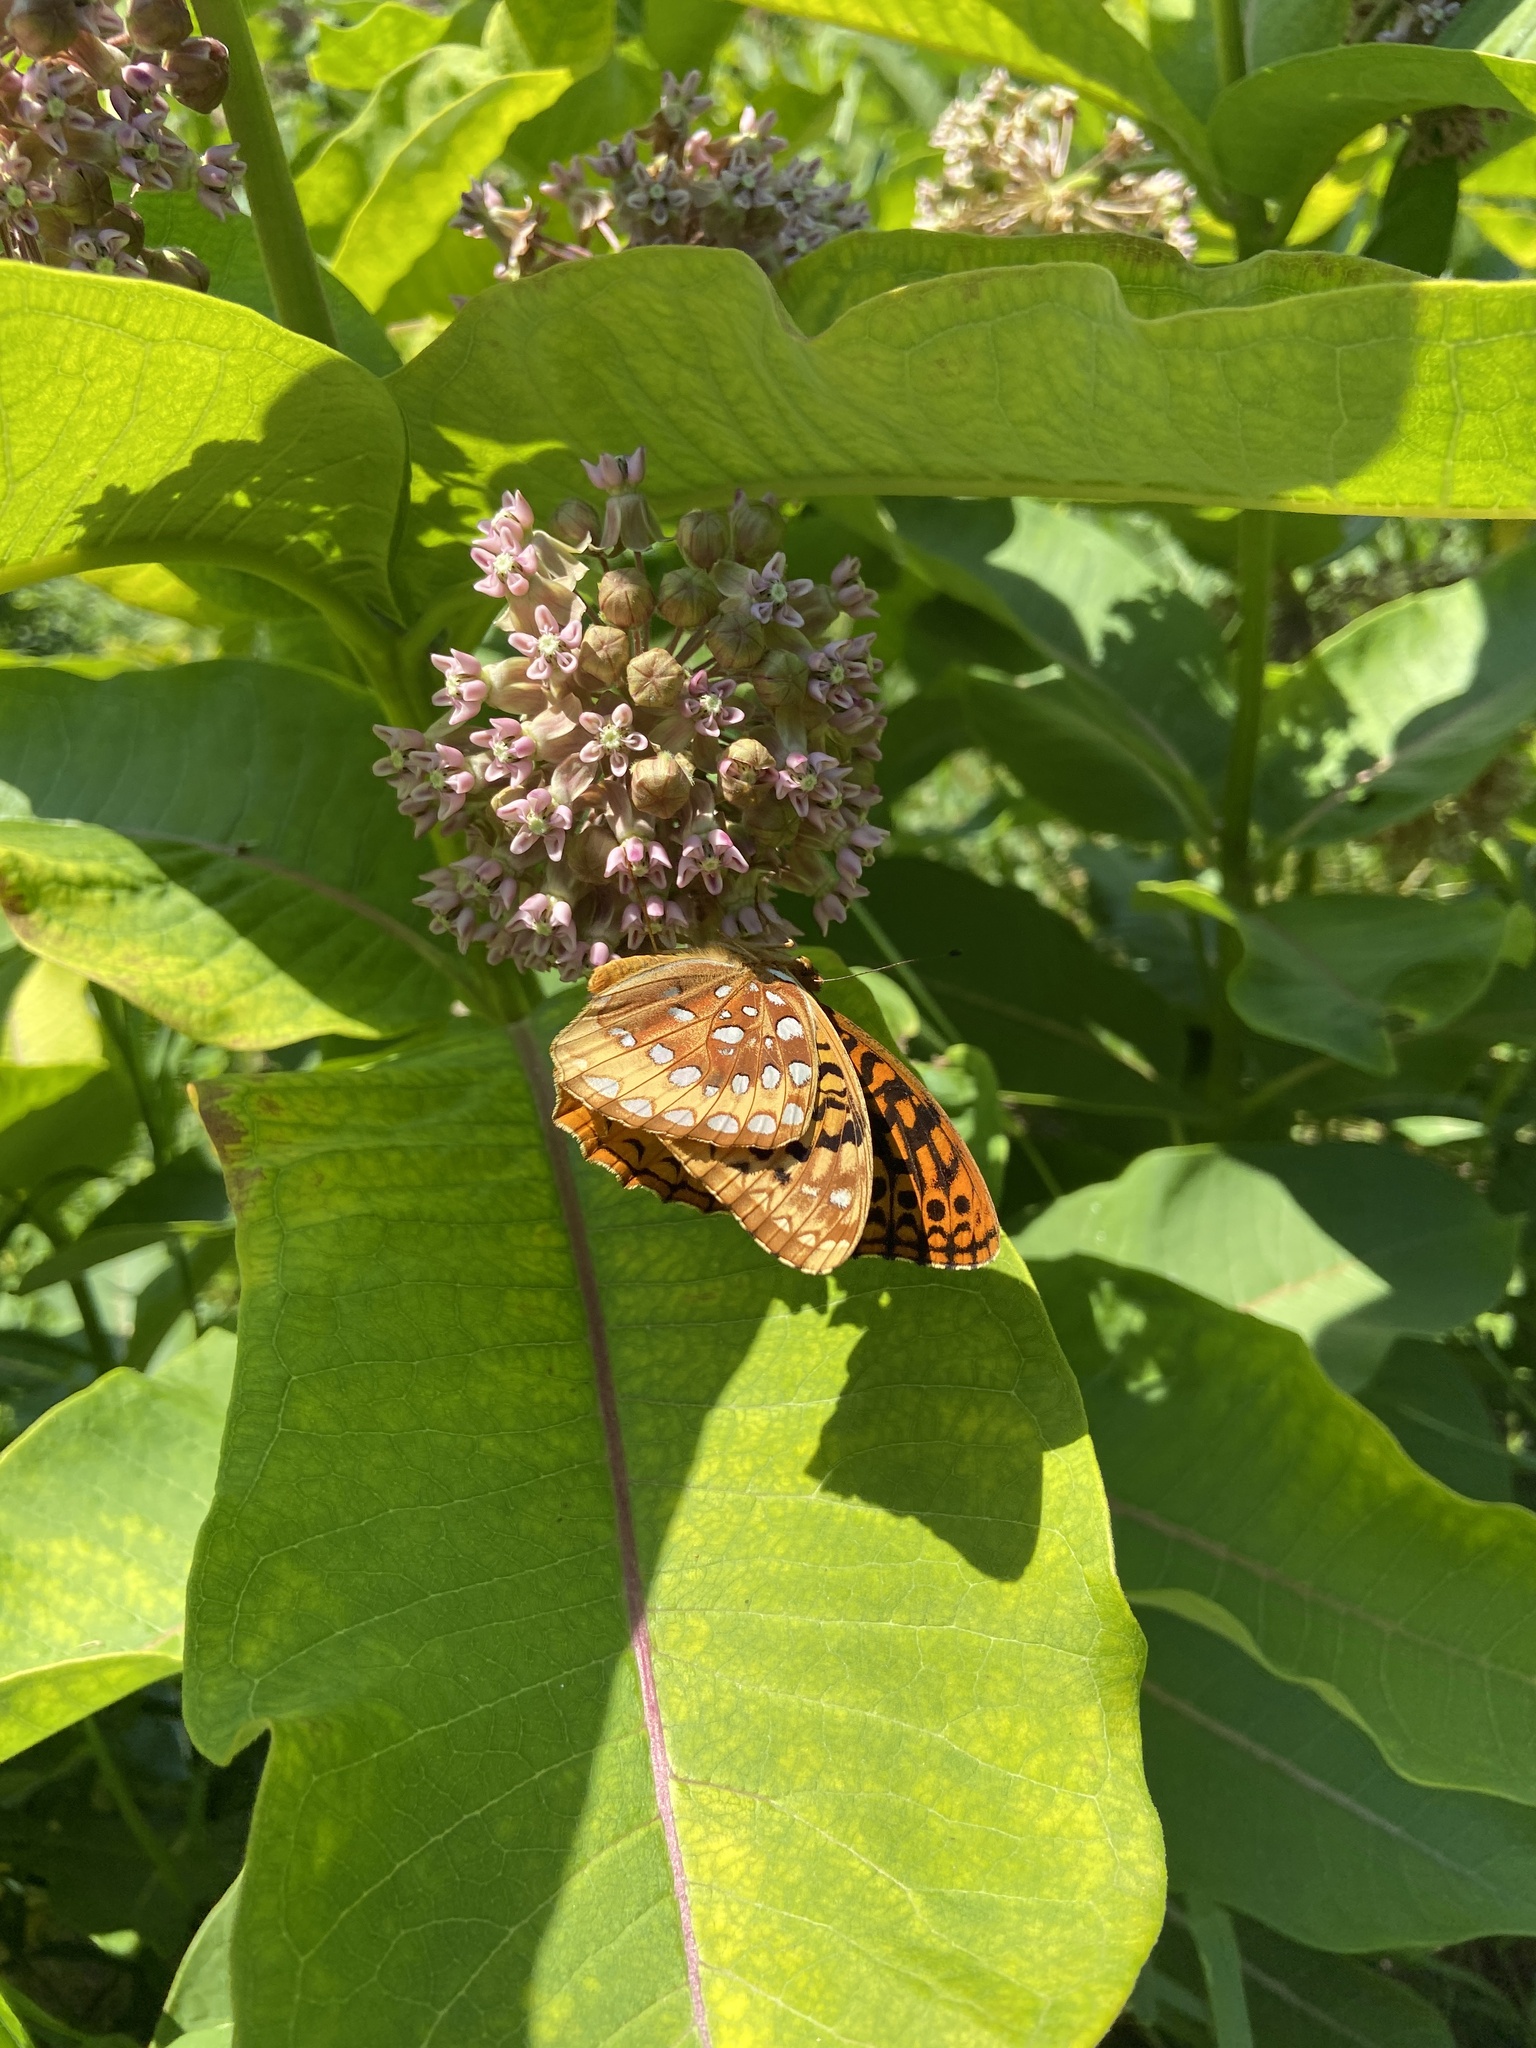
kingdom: Animalia
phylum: Arthropoda
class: Insecta
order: Lepidoptera
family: Nymphalidae
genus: Speyeria
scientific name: Speyeria cybele
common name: Great spangled fritillary
